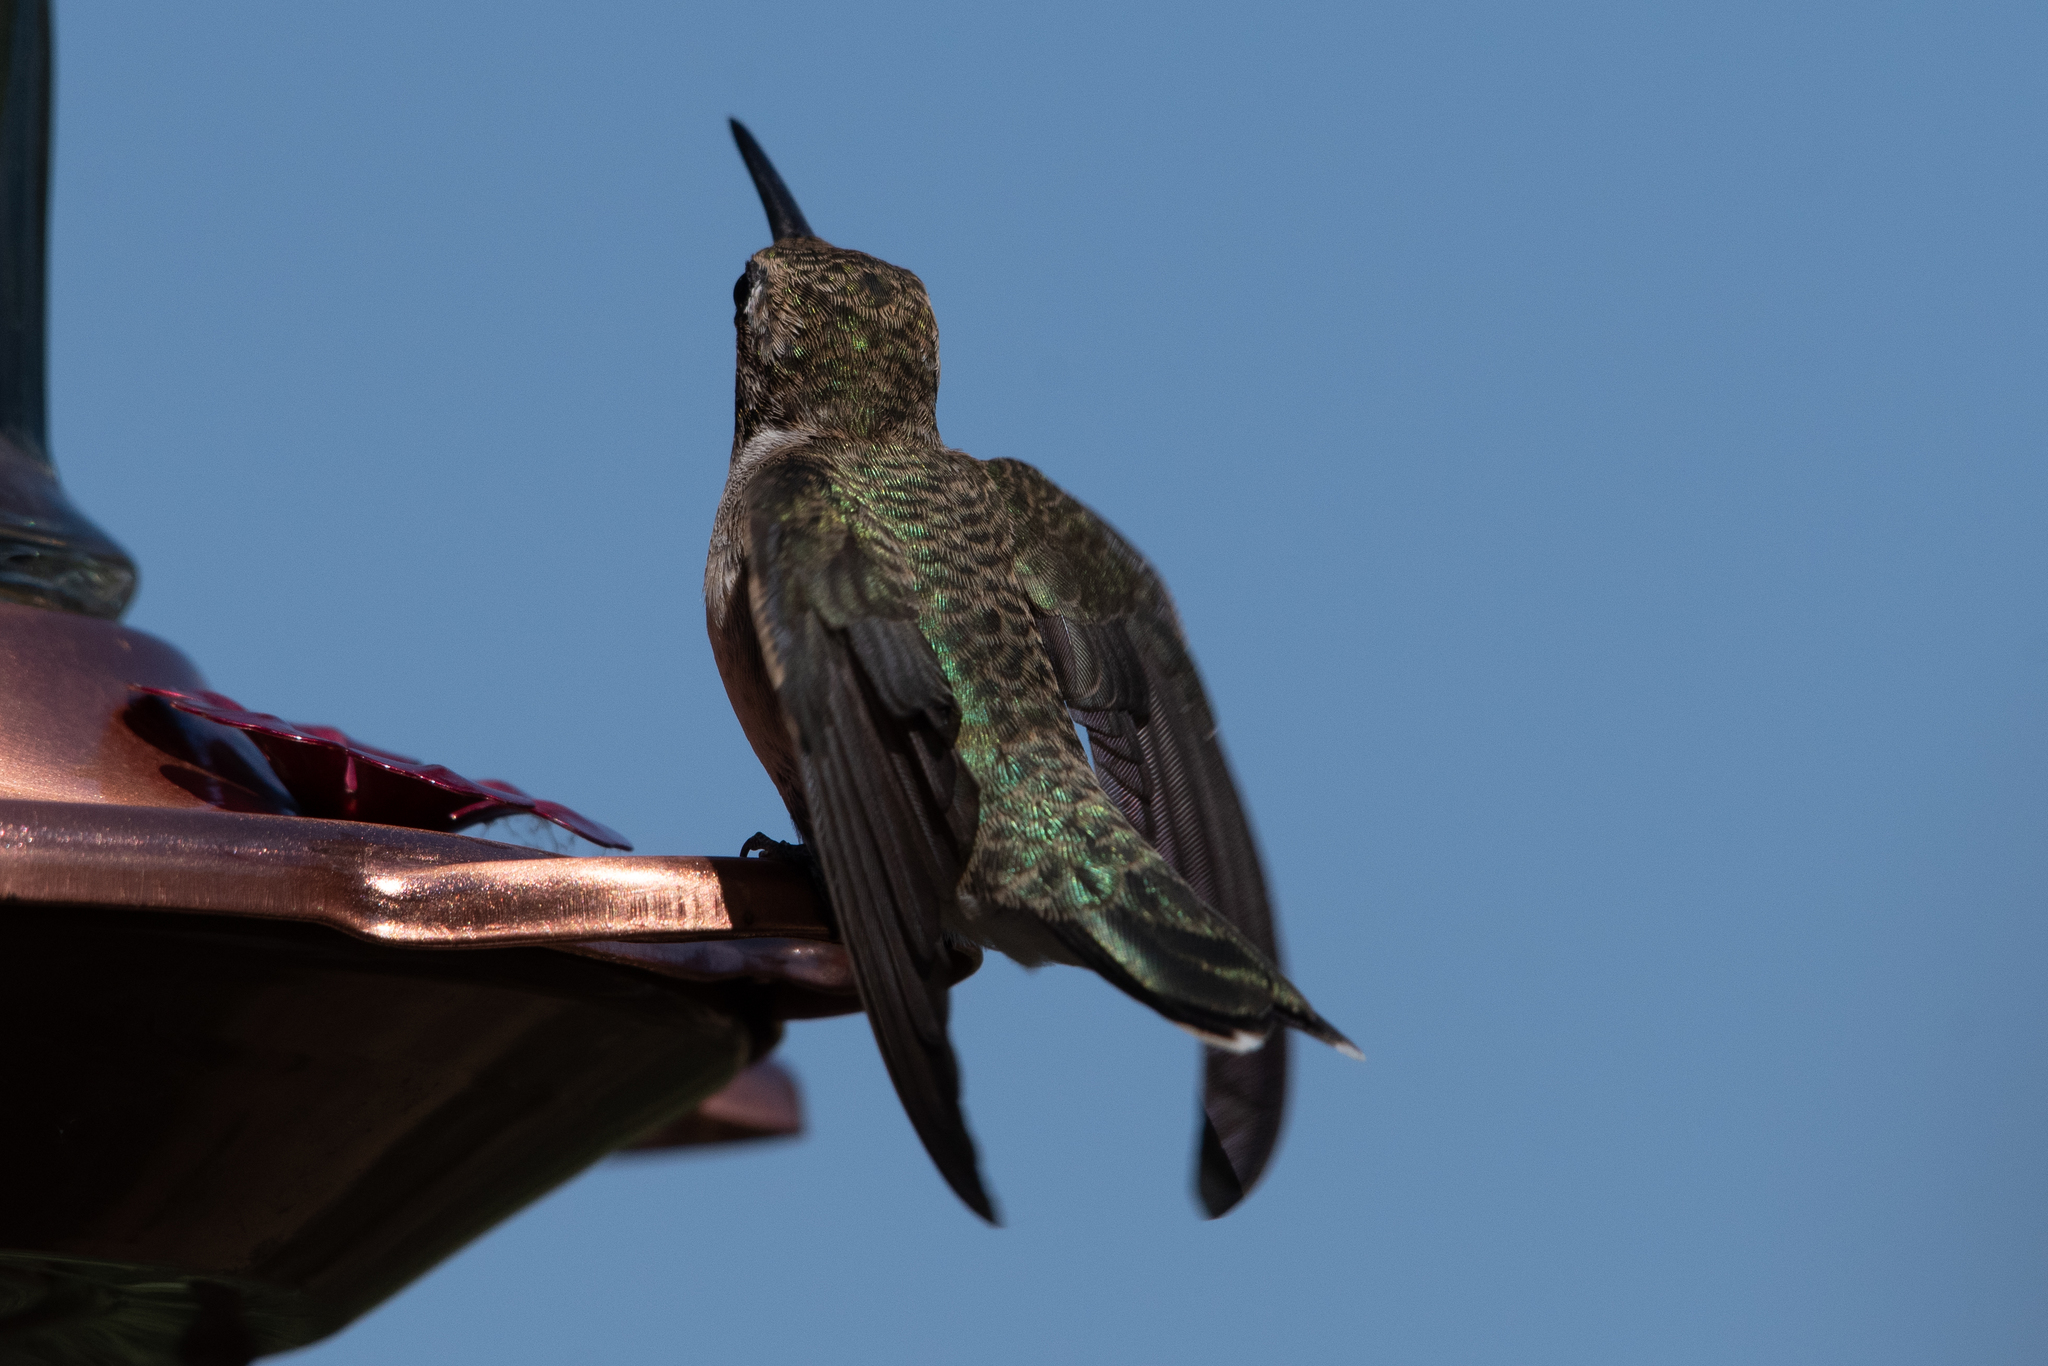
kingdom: Animalia
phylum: Chordata
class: Aves
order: Apodiformes
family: Trochilidae
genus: Calypte
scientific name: Calypte anna
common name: Anna's hummingbird
